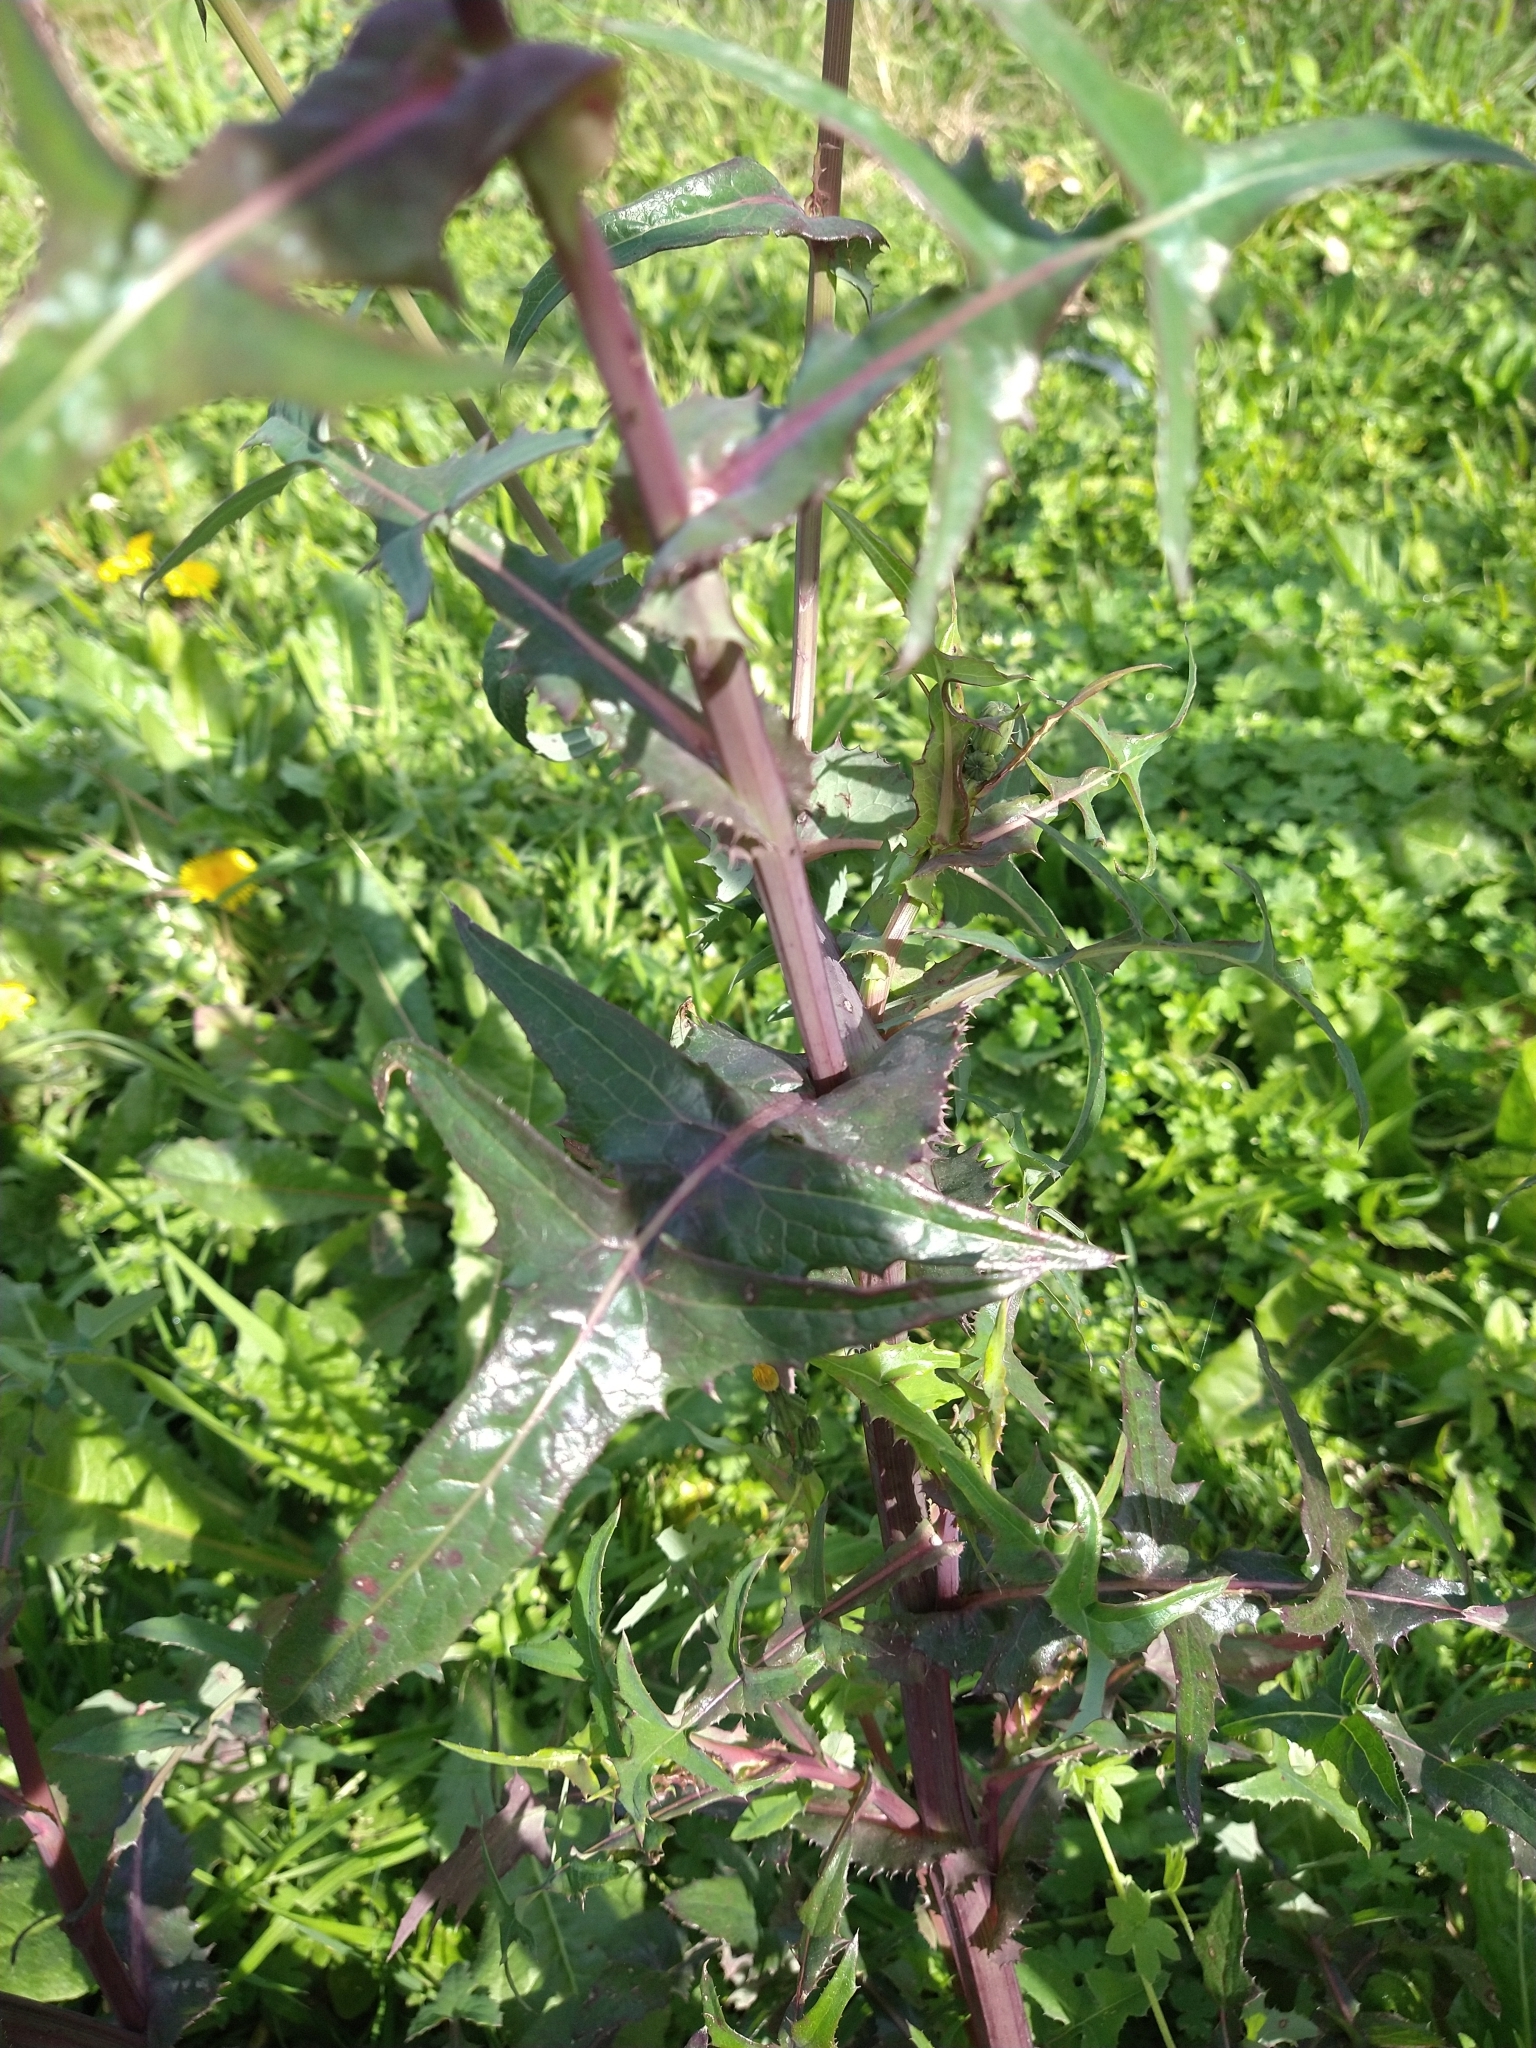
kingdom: Plantae
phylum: Tracheophyta
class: Magnoliopsida
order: Asterales
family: Asteraceae
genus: Sonchus
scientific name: Sonchus oleraceus
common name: Common sowthistle
